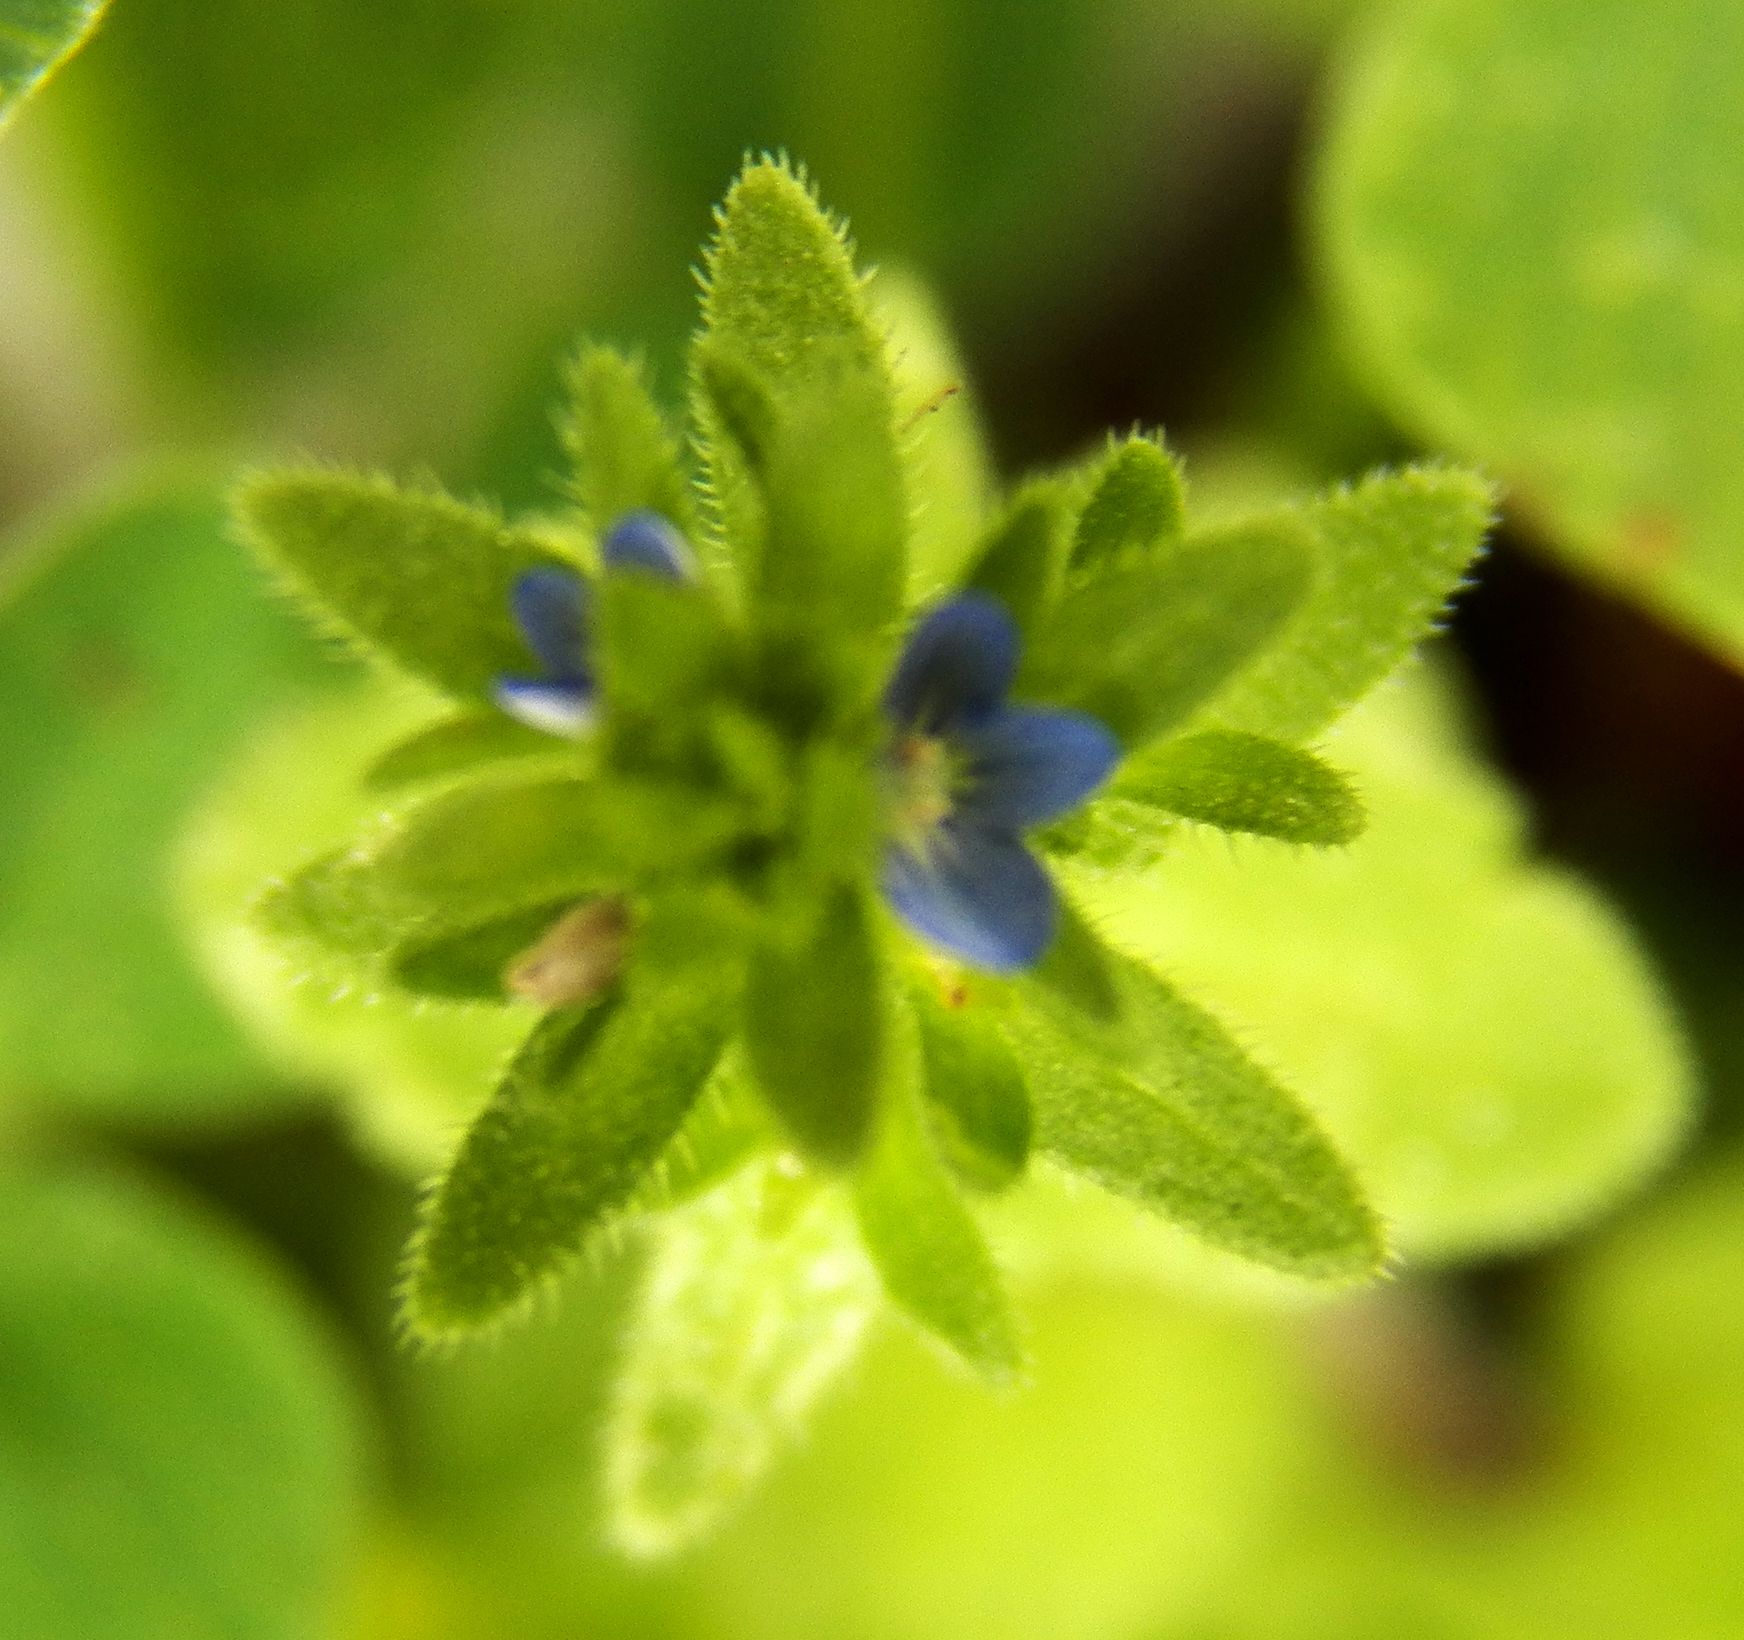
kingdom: Plantae
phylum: Tracheophyta
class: Magnoliopsida
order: Lamiales
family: Plantaginaceae
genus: Veronica
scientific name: Veronica arvensis
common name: Corn speedwell
